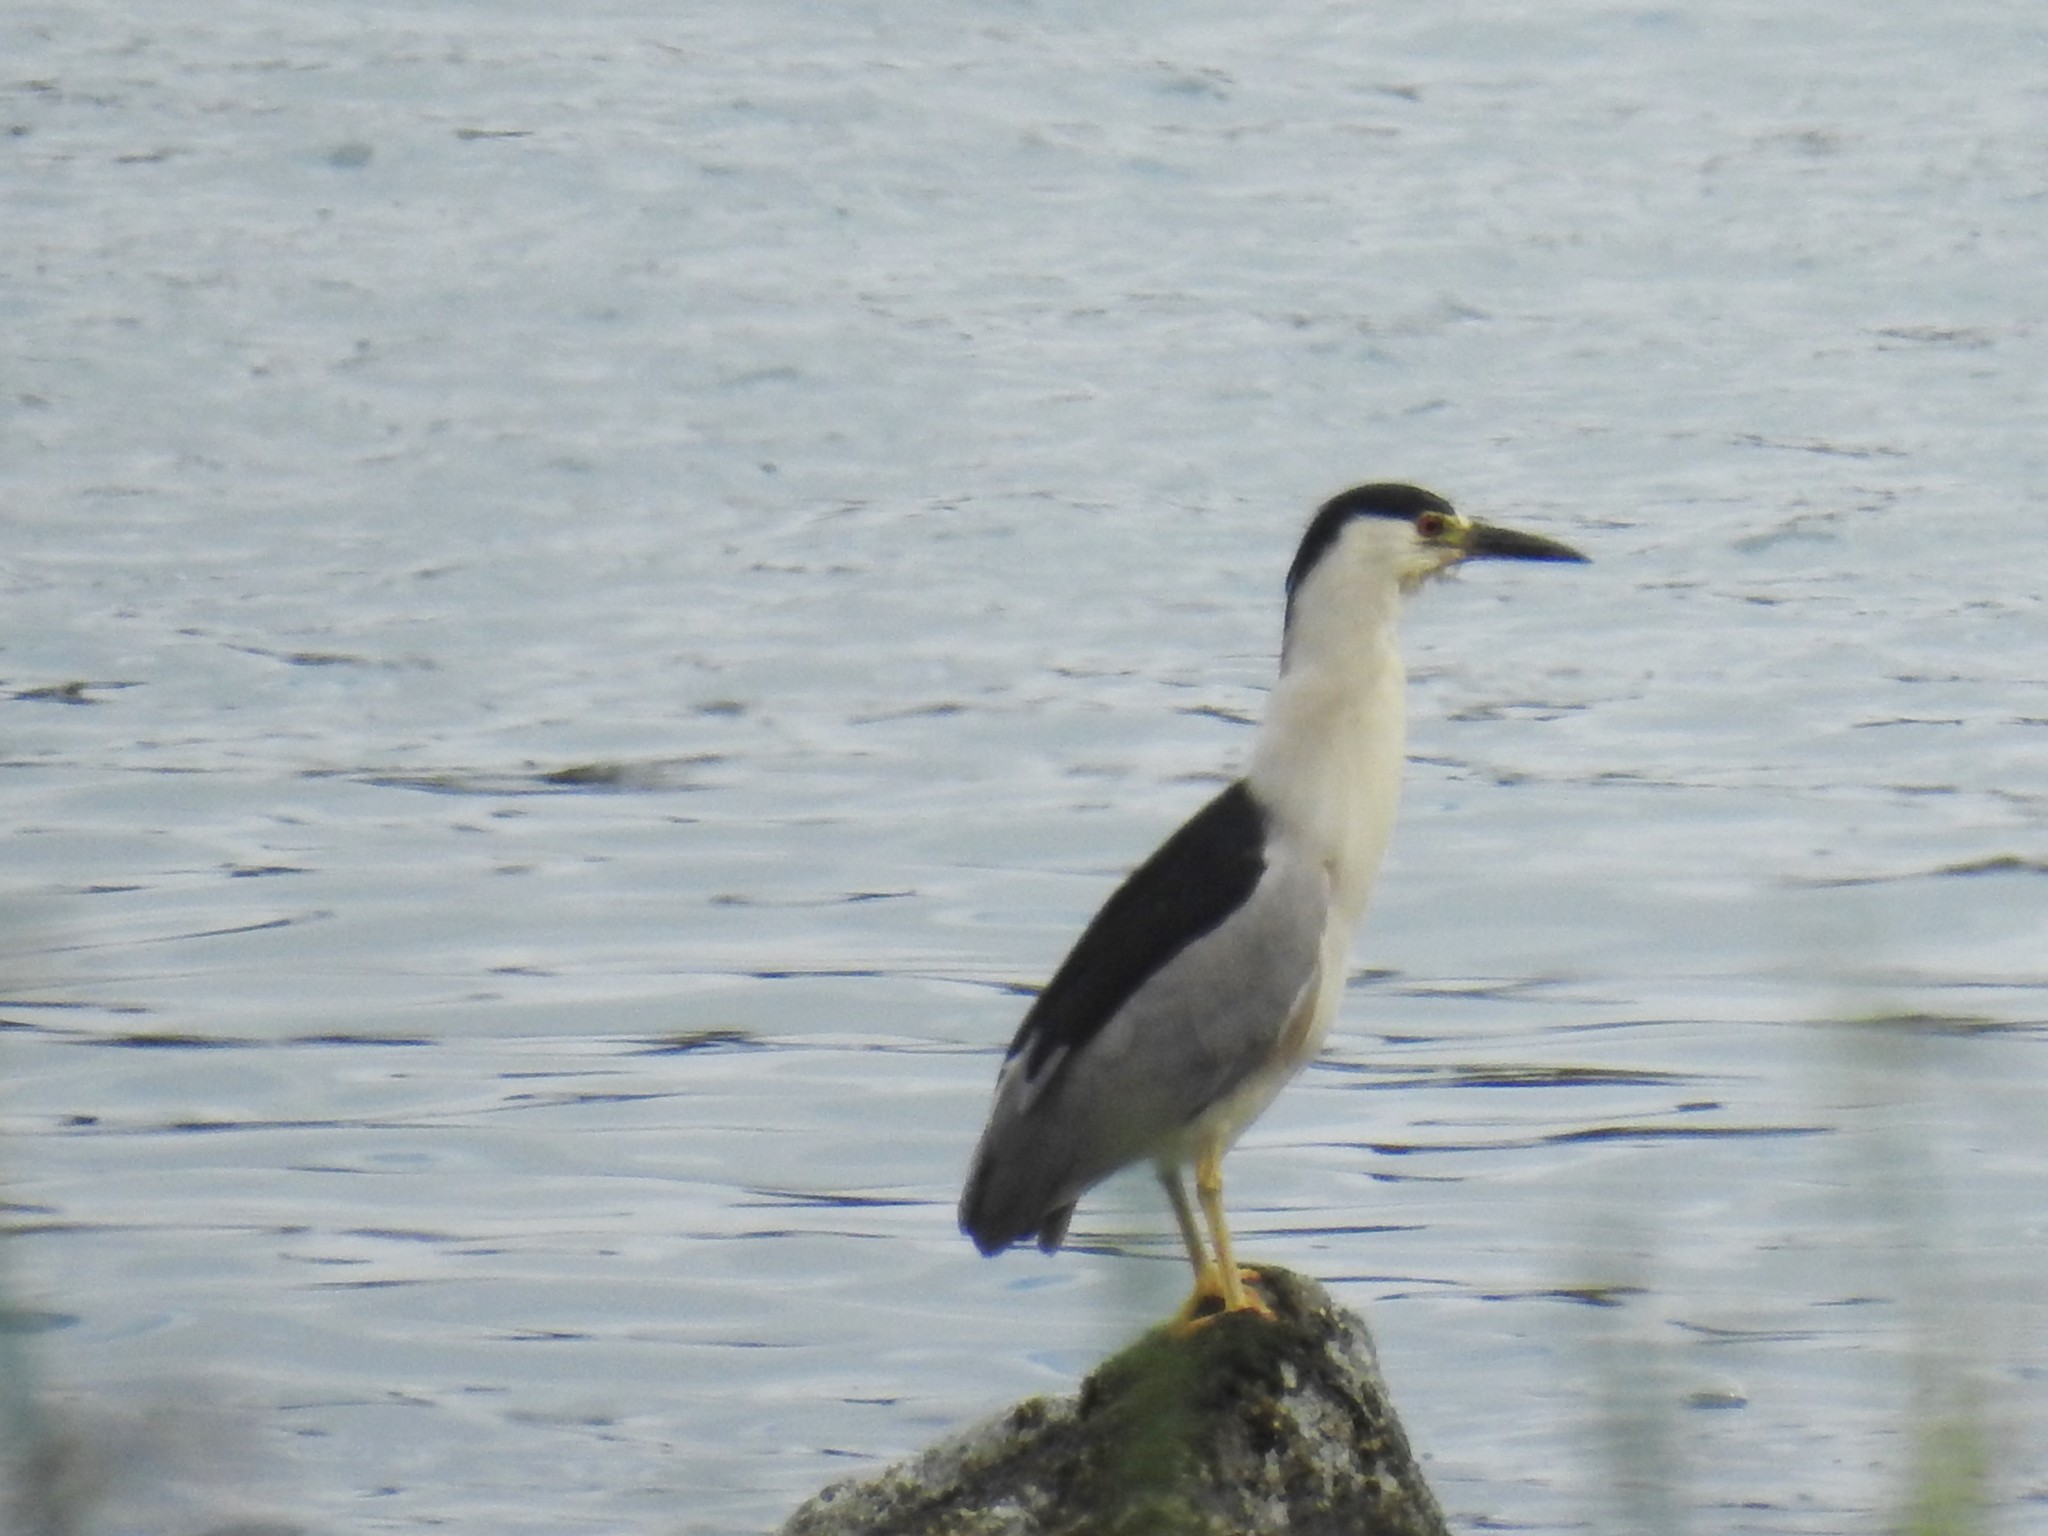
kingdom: Animalia
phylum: Chordata
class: Aves
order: Pelecaniformes
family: Ardeidae
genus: Nycticorax
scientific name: Nycticorax nycticorax
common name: Black-crowned night heron
